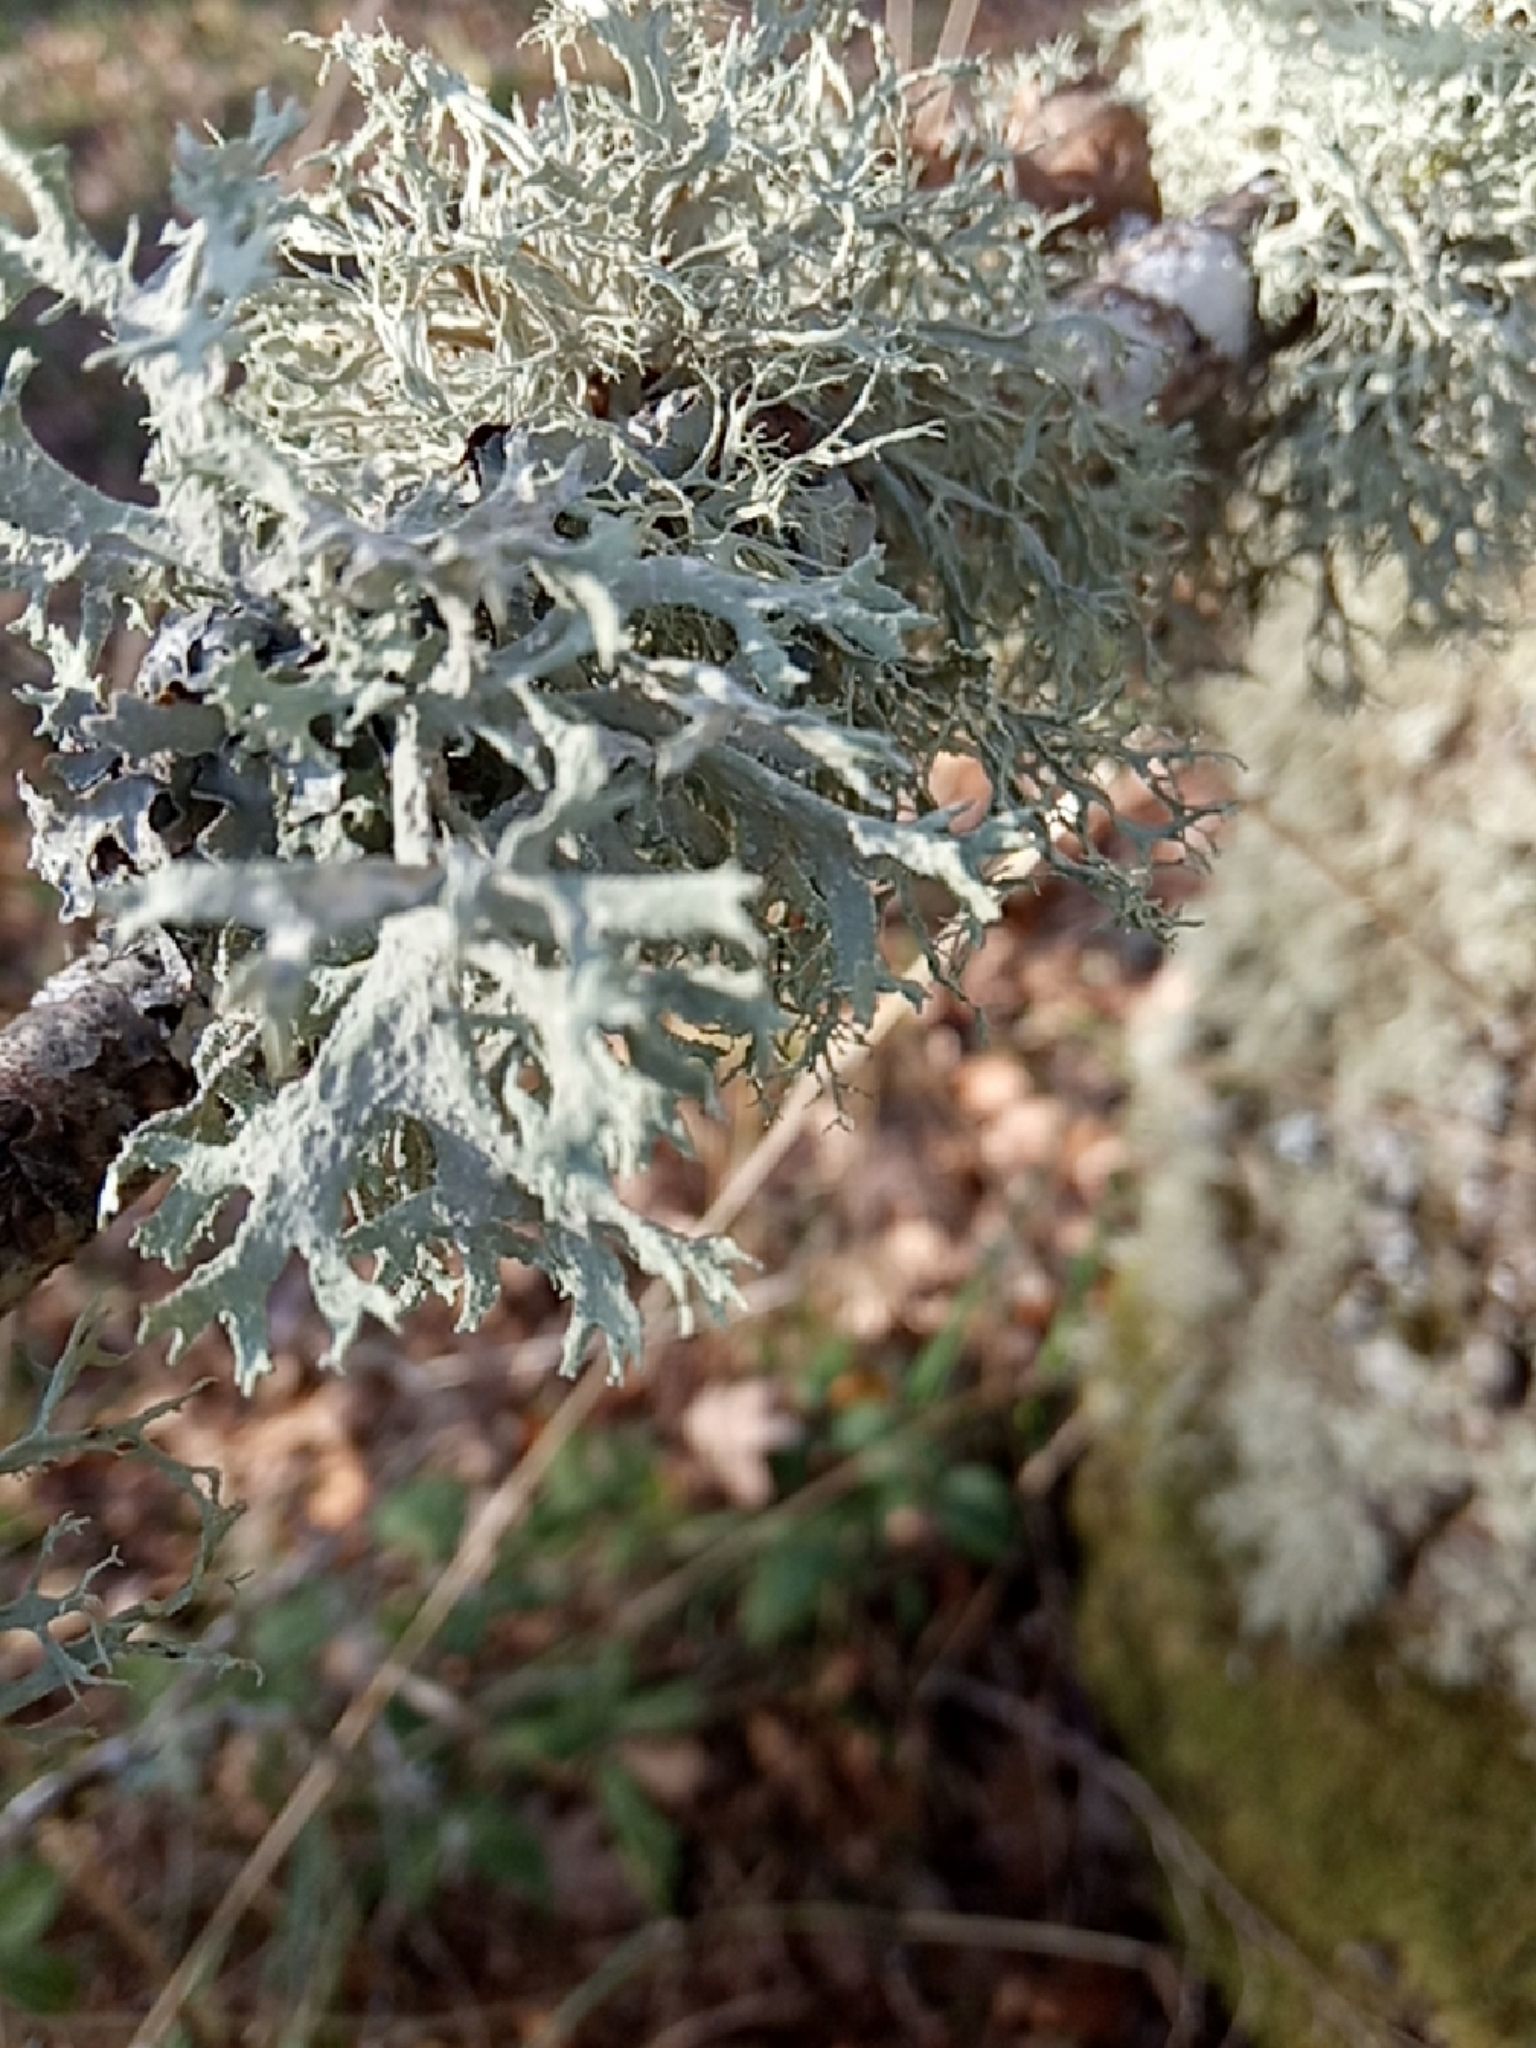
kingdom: Fungi
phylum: Ascomycota
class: Lecanoromycetes
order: Lecanorales
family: Parmeliaceae
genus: Evernia
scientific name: Evernia prunastri
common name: Oak moss
